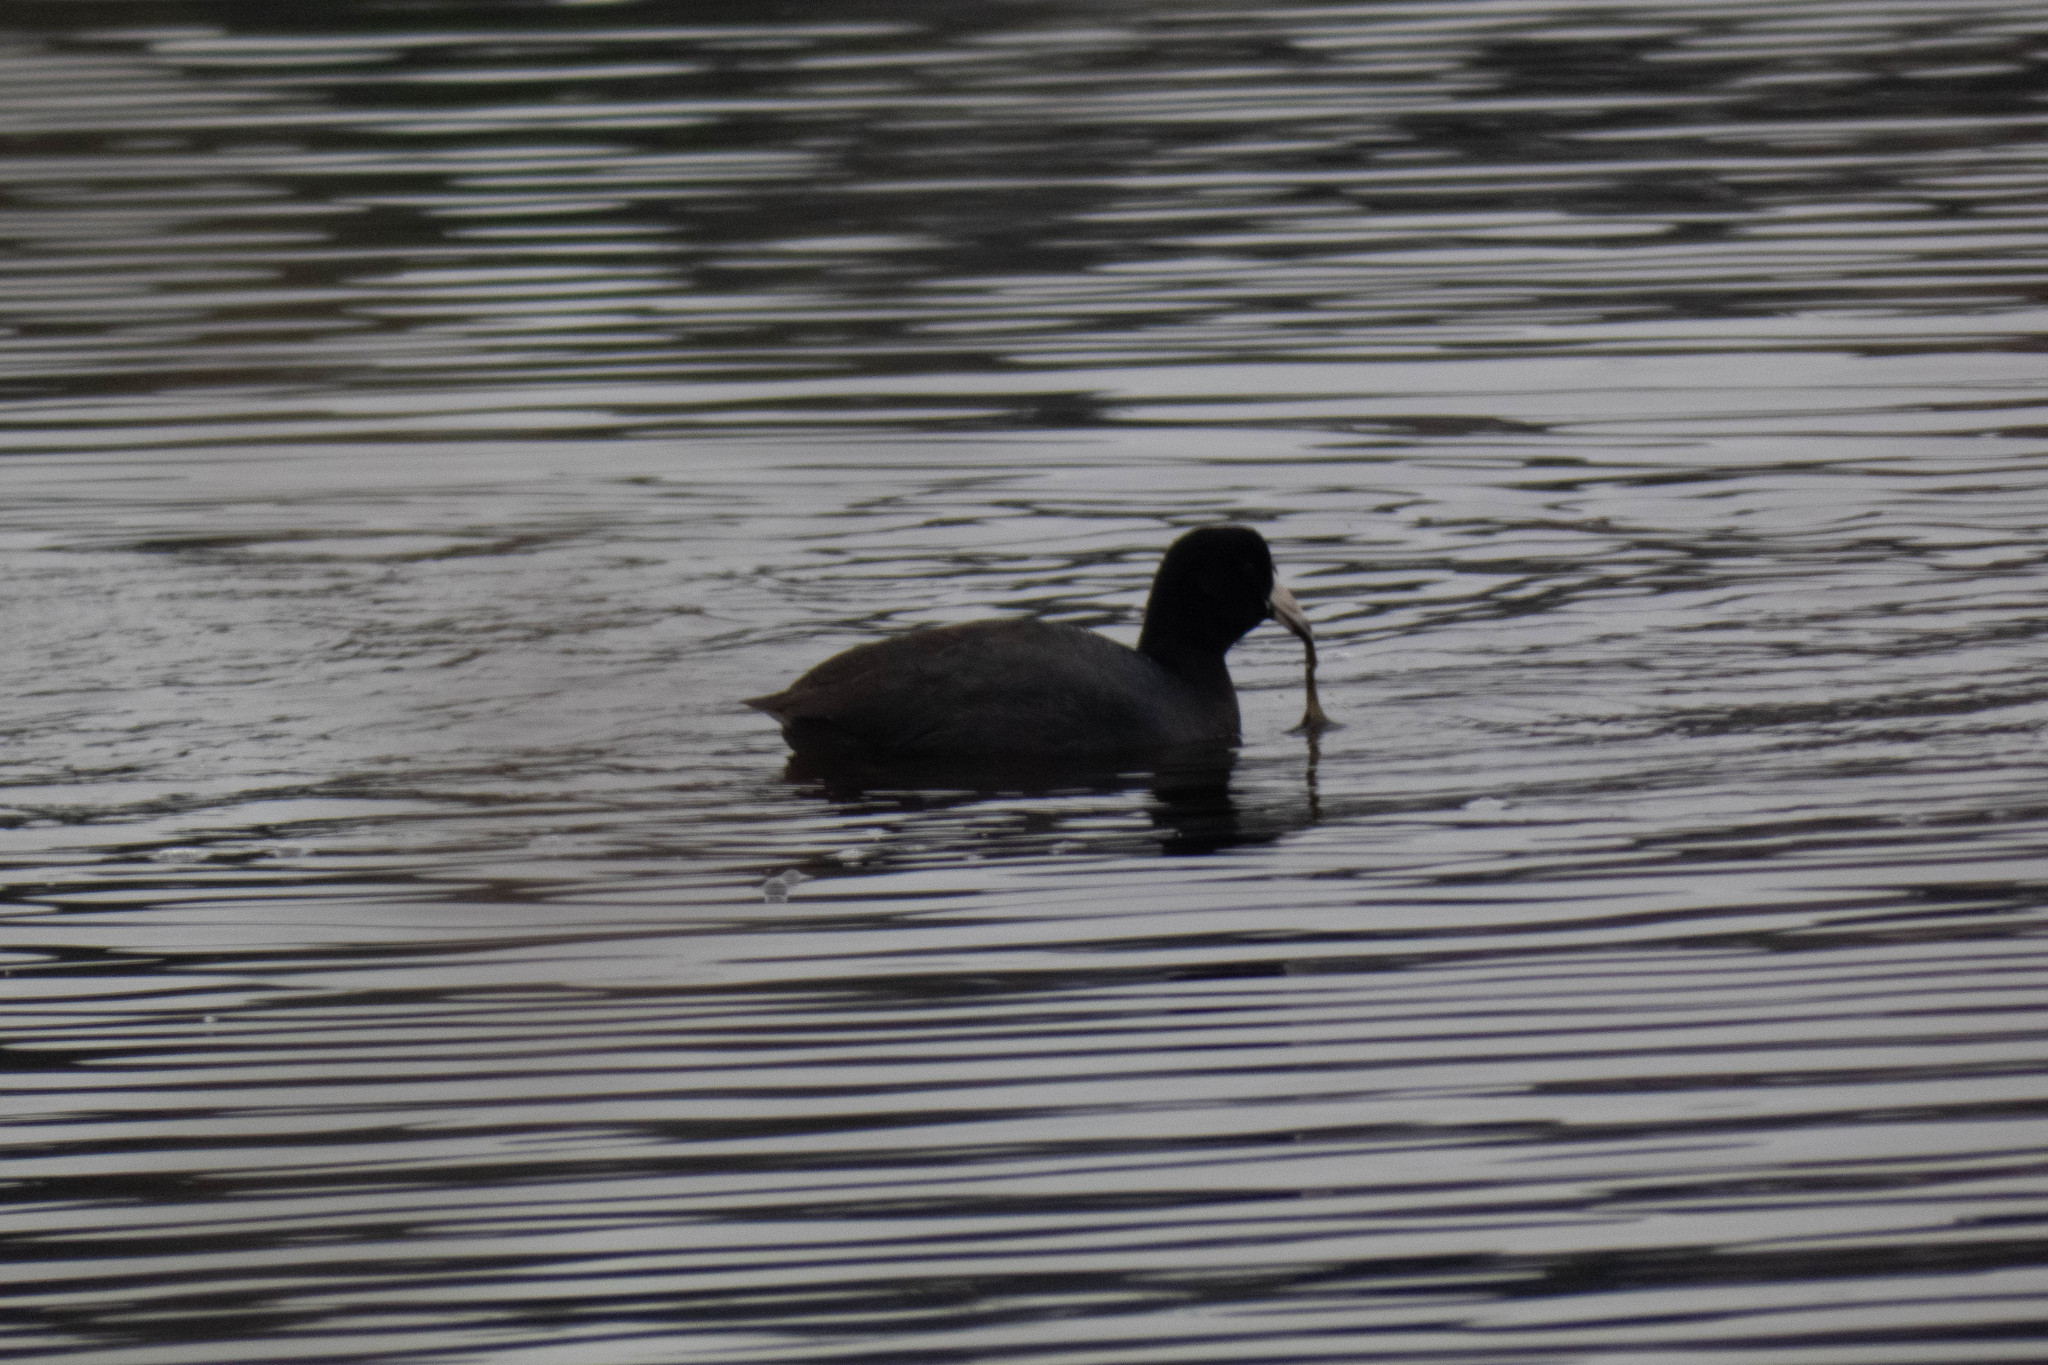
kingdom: Animalia
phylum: Chordata
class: Aves
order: Gruiformes
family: Rallidae
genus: Fulica
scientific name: Fulica americana
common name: American coot
